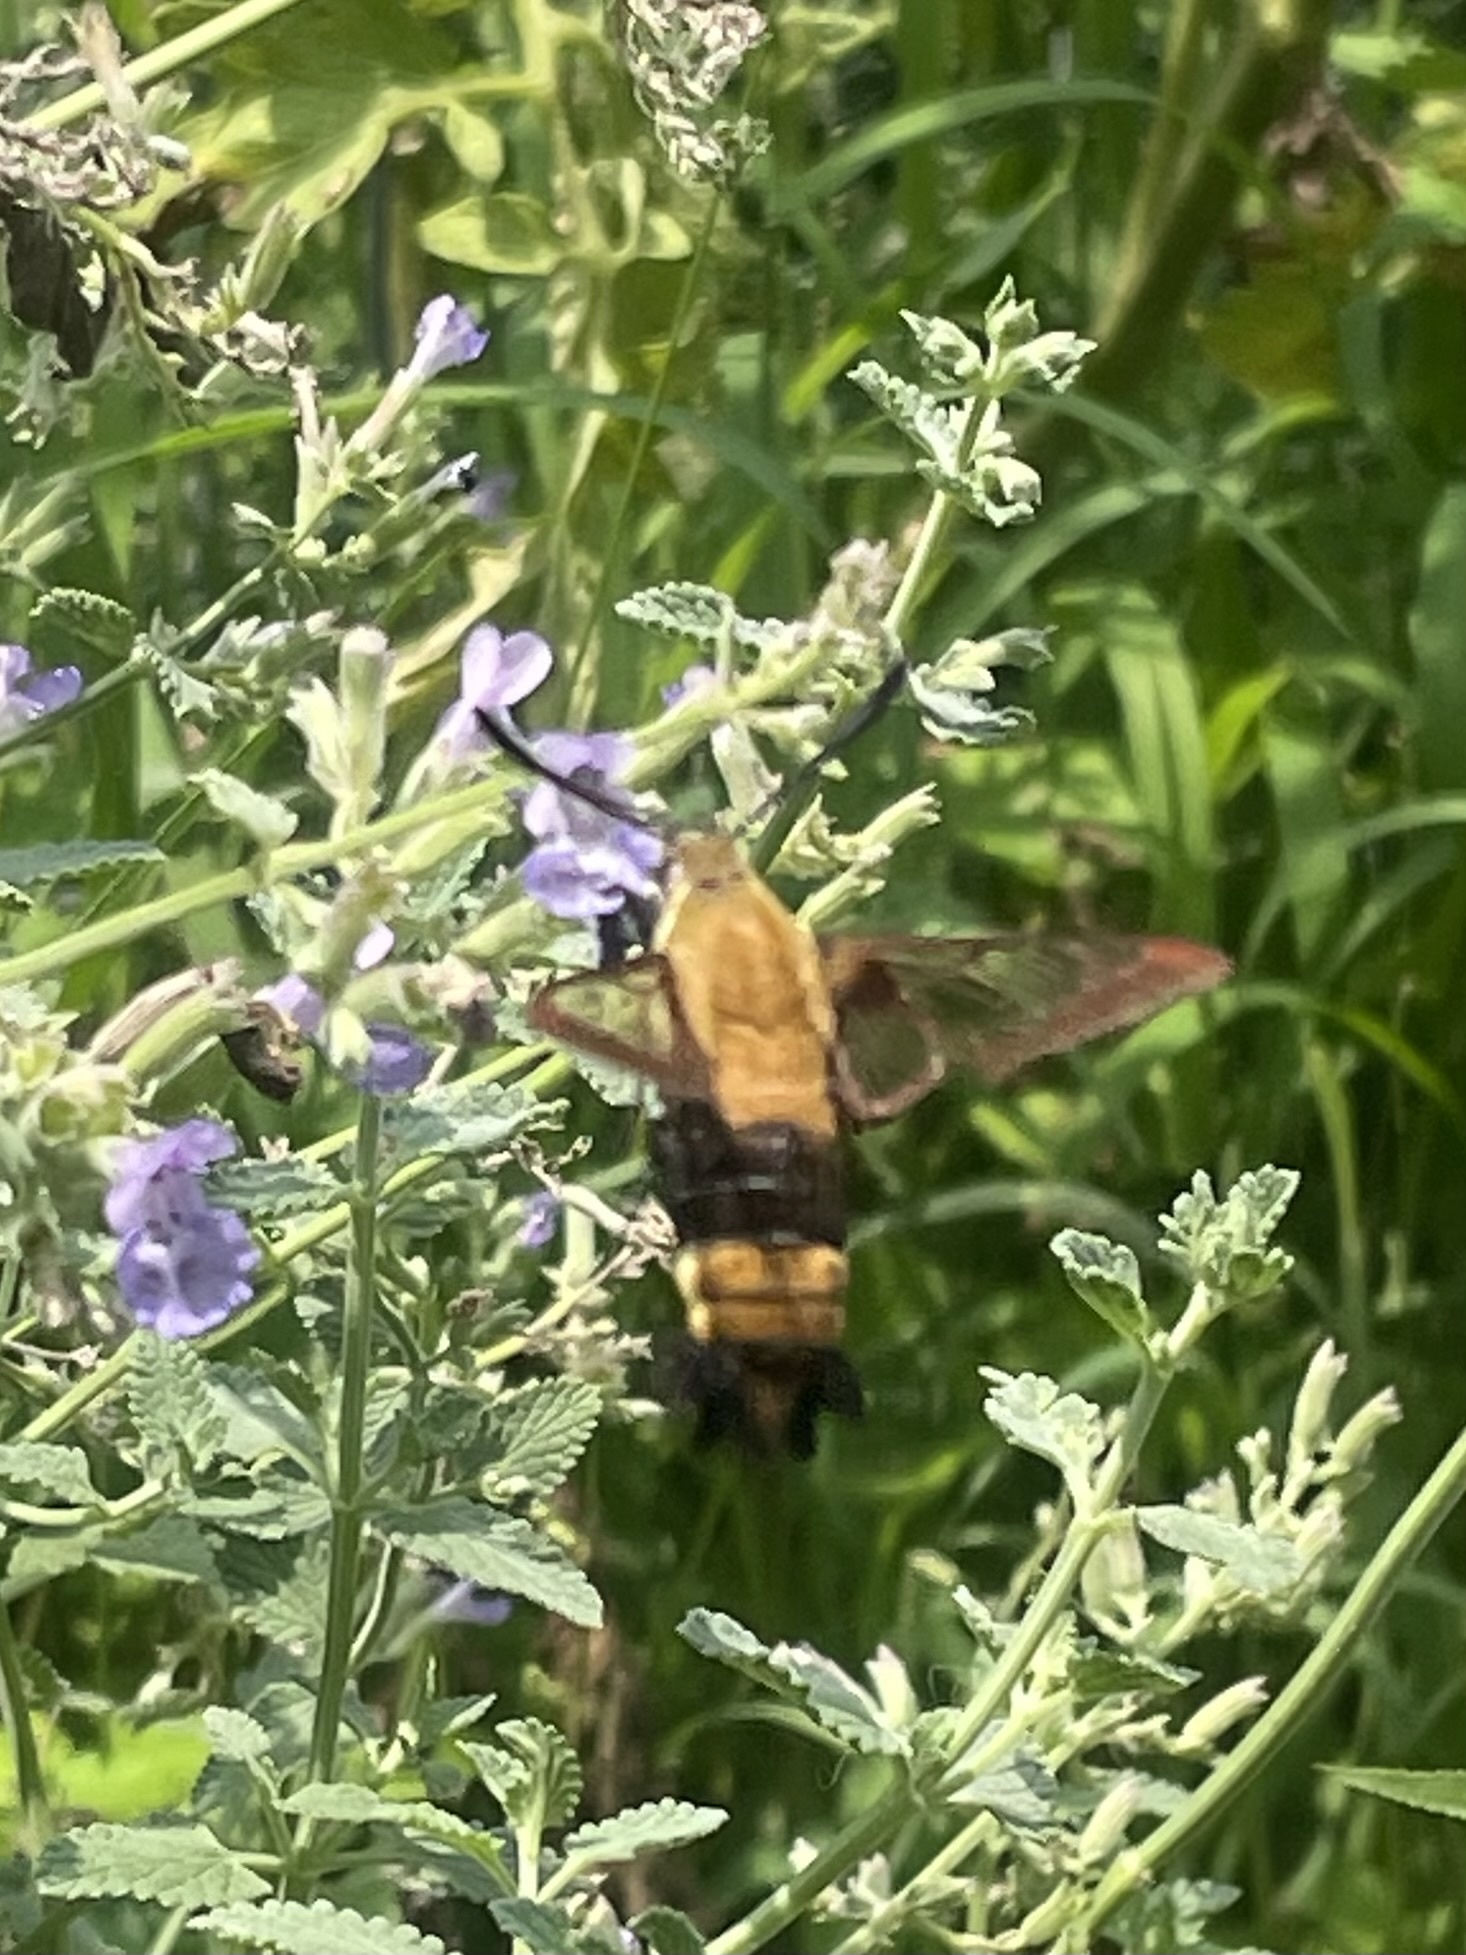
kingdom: Animalia
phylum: Arthropoda
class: Insecta
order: Lepidoptera
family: Sphingidae
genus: Hemaris
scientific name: Hemaris diffinis
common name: Bumblebee moth
